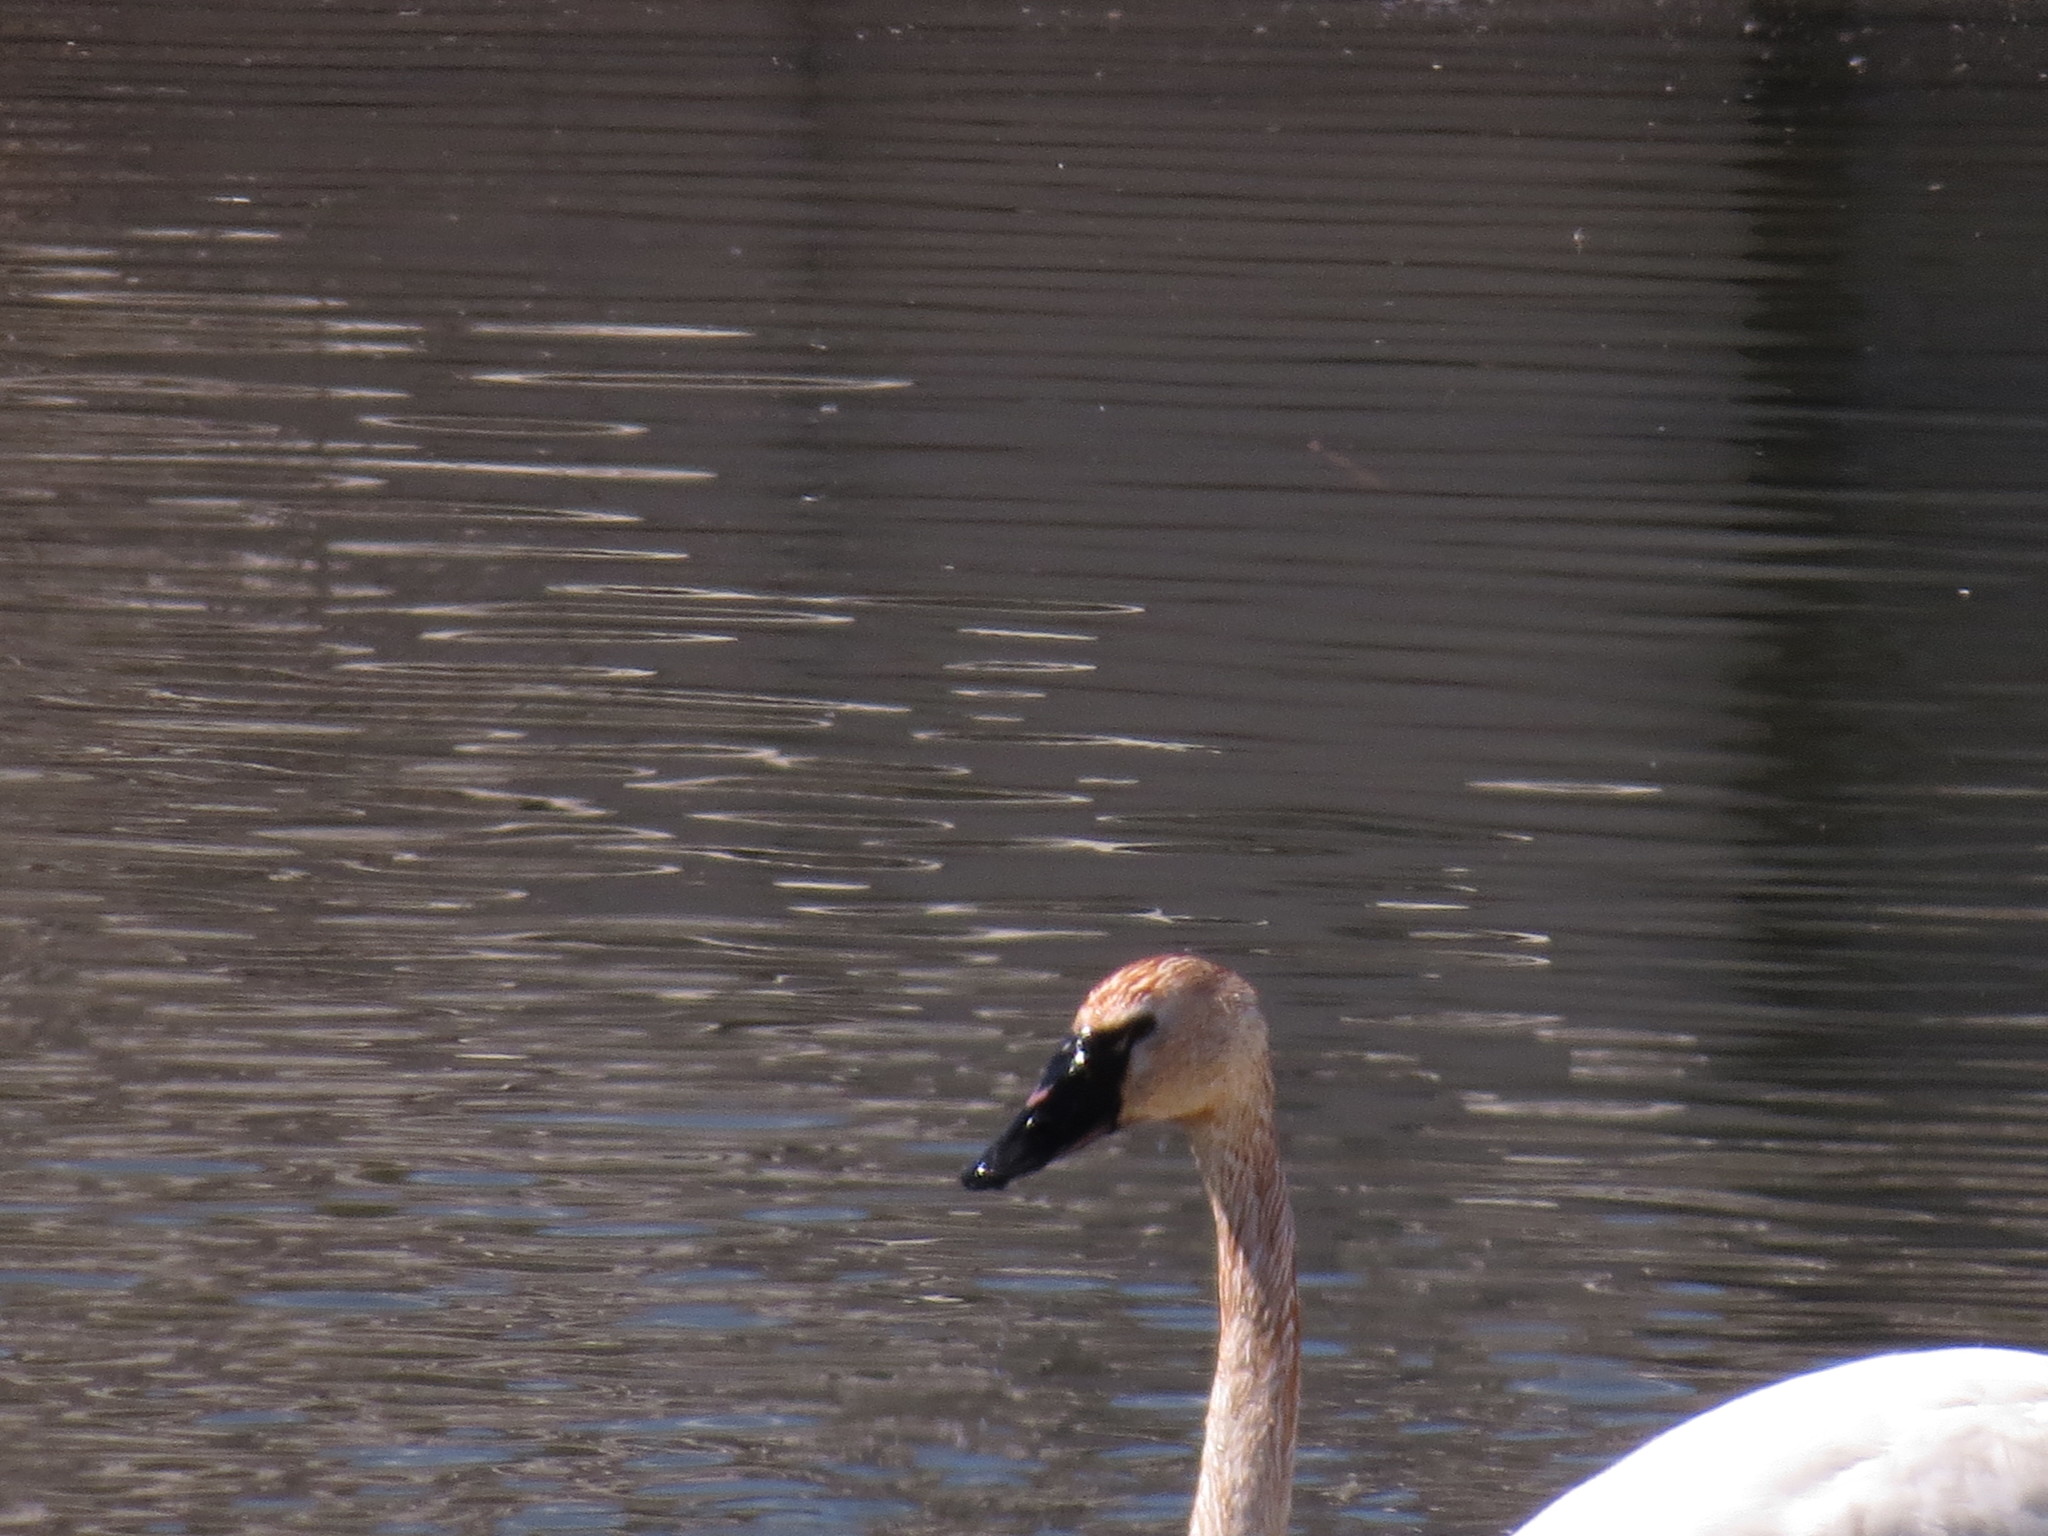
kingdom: Animalia
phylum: Chordata
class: Aves
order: Anseriformes
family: Anatidae
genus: Cygnus
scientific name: Cygnus columbianus
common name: Tundra swan
